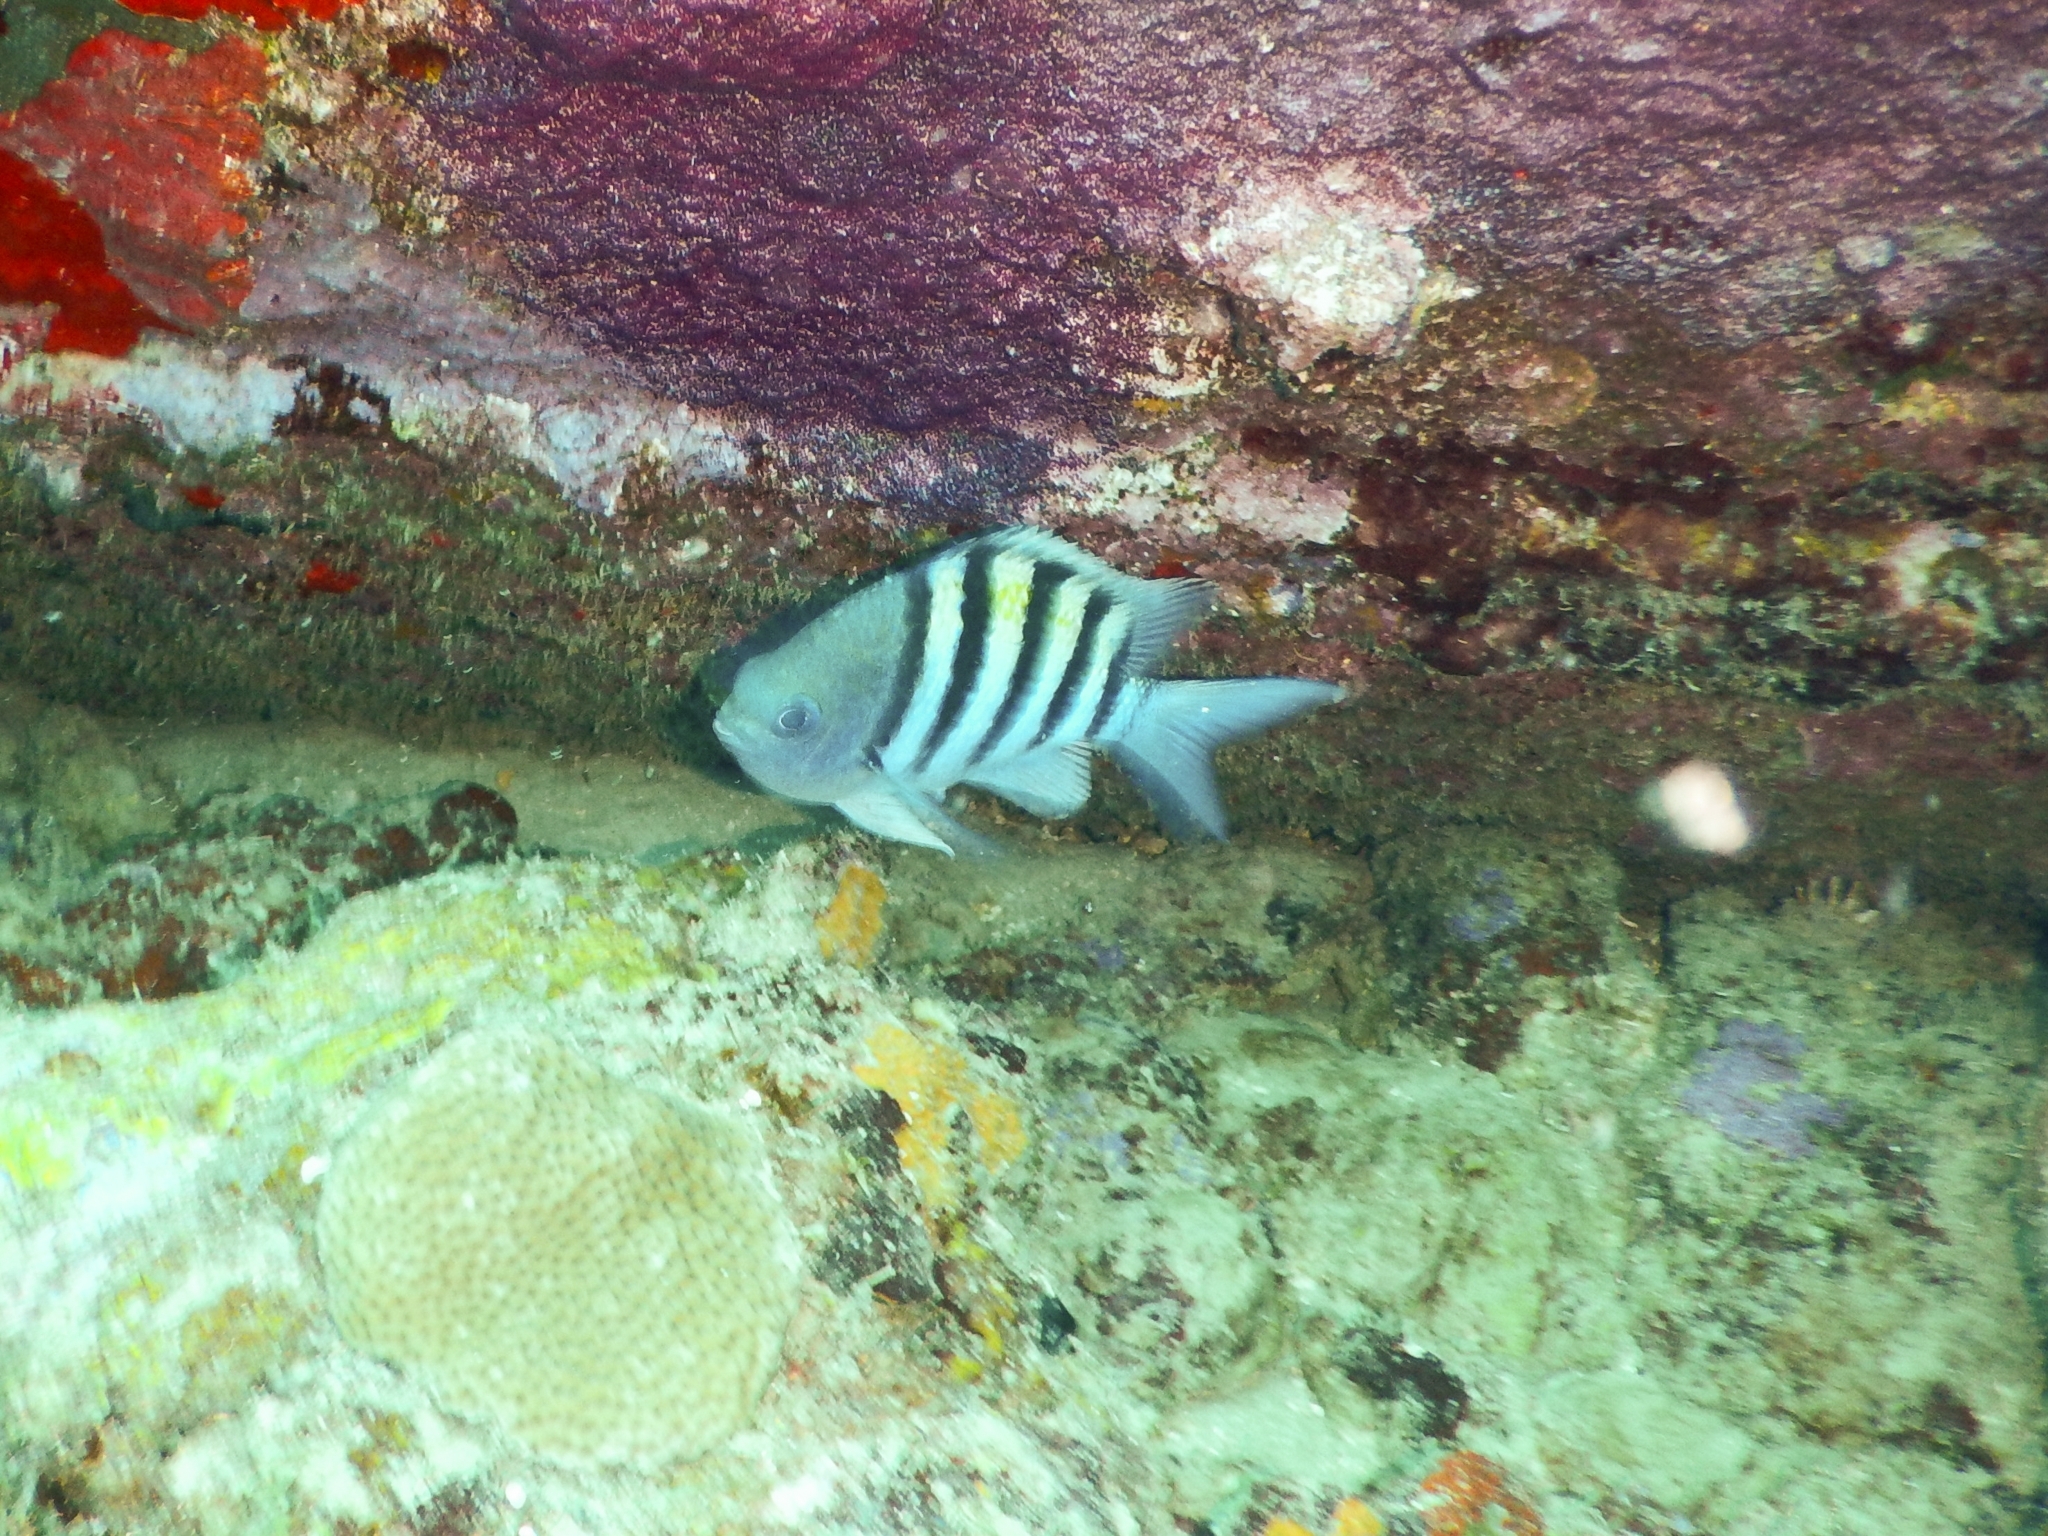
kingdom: Animalia
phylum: Chordata
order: Perciformes
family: Pomacentridae
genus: Abudefduf
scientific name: Abudefduf saxatilis
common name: Sergeant major
